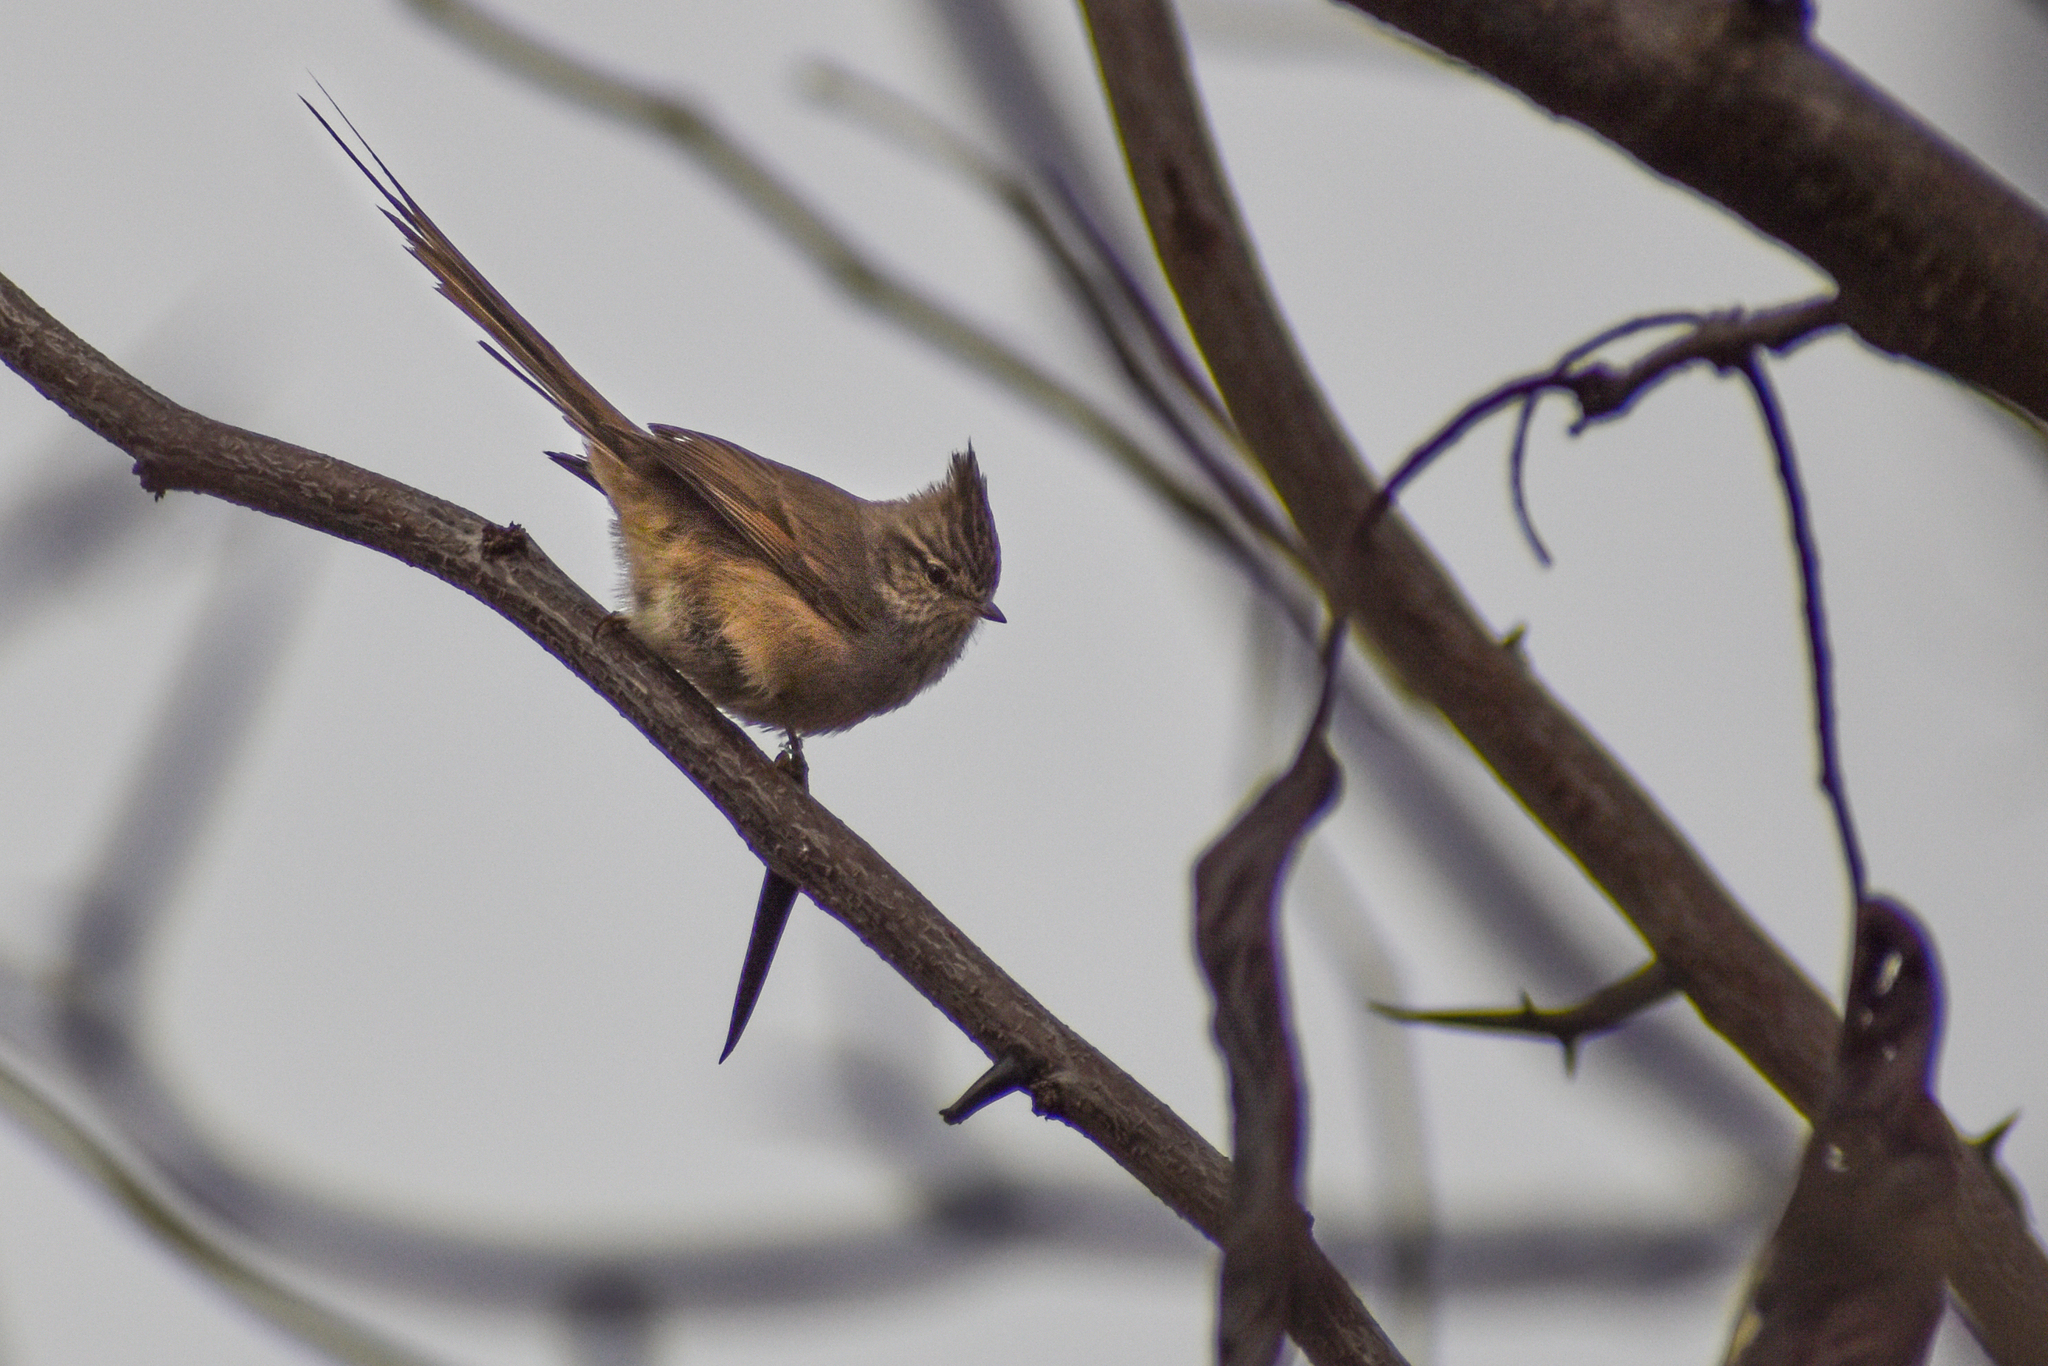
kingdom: Animalia
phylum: Chordata
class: Aves
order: Passeriformes
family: Furnariidae
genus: Leptasthenura
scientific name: Leptasthenura platensis
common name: Tufted tit-spinetail
